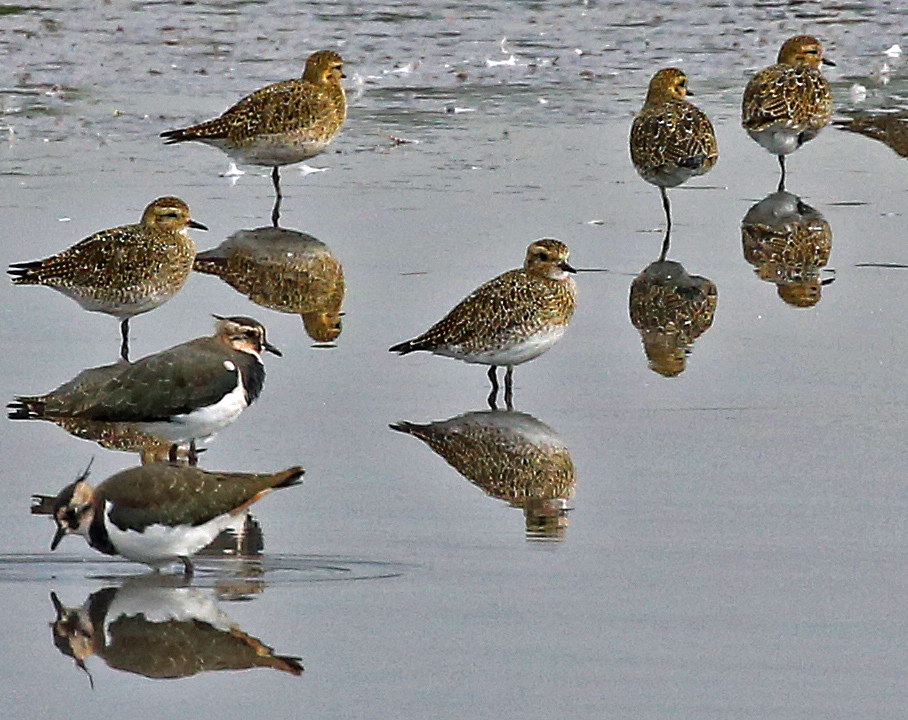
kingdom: Animalia
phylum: Chordata
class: Aves
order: Charadriiformes
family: Charadriidae
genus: Vanellus
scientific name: Vanellus vanellus
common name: Northern lapwing
